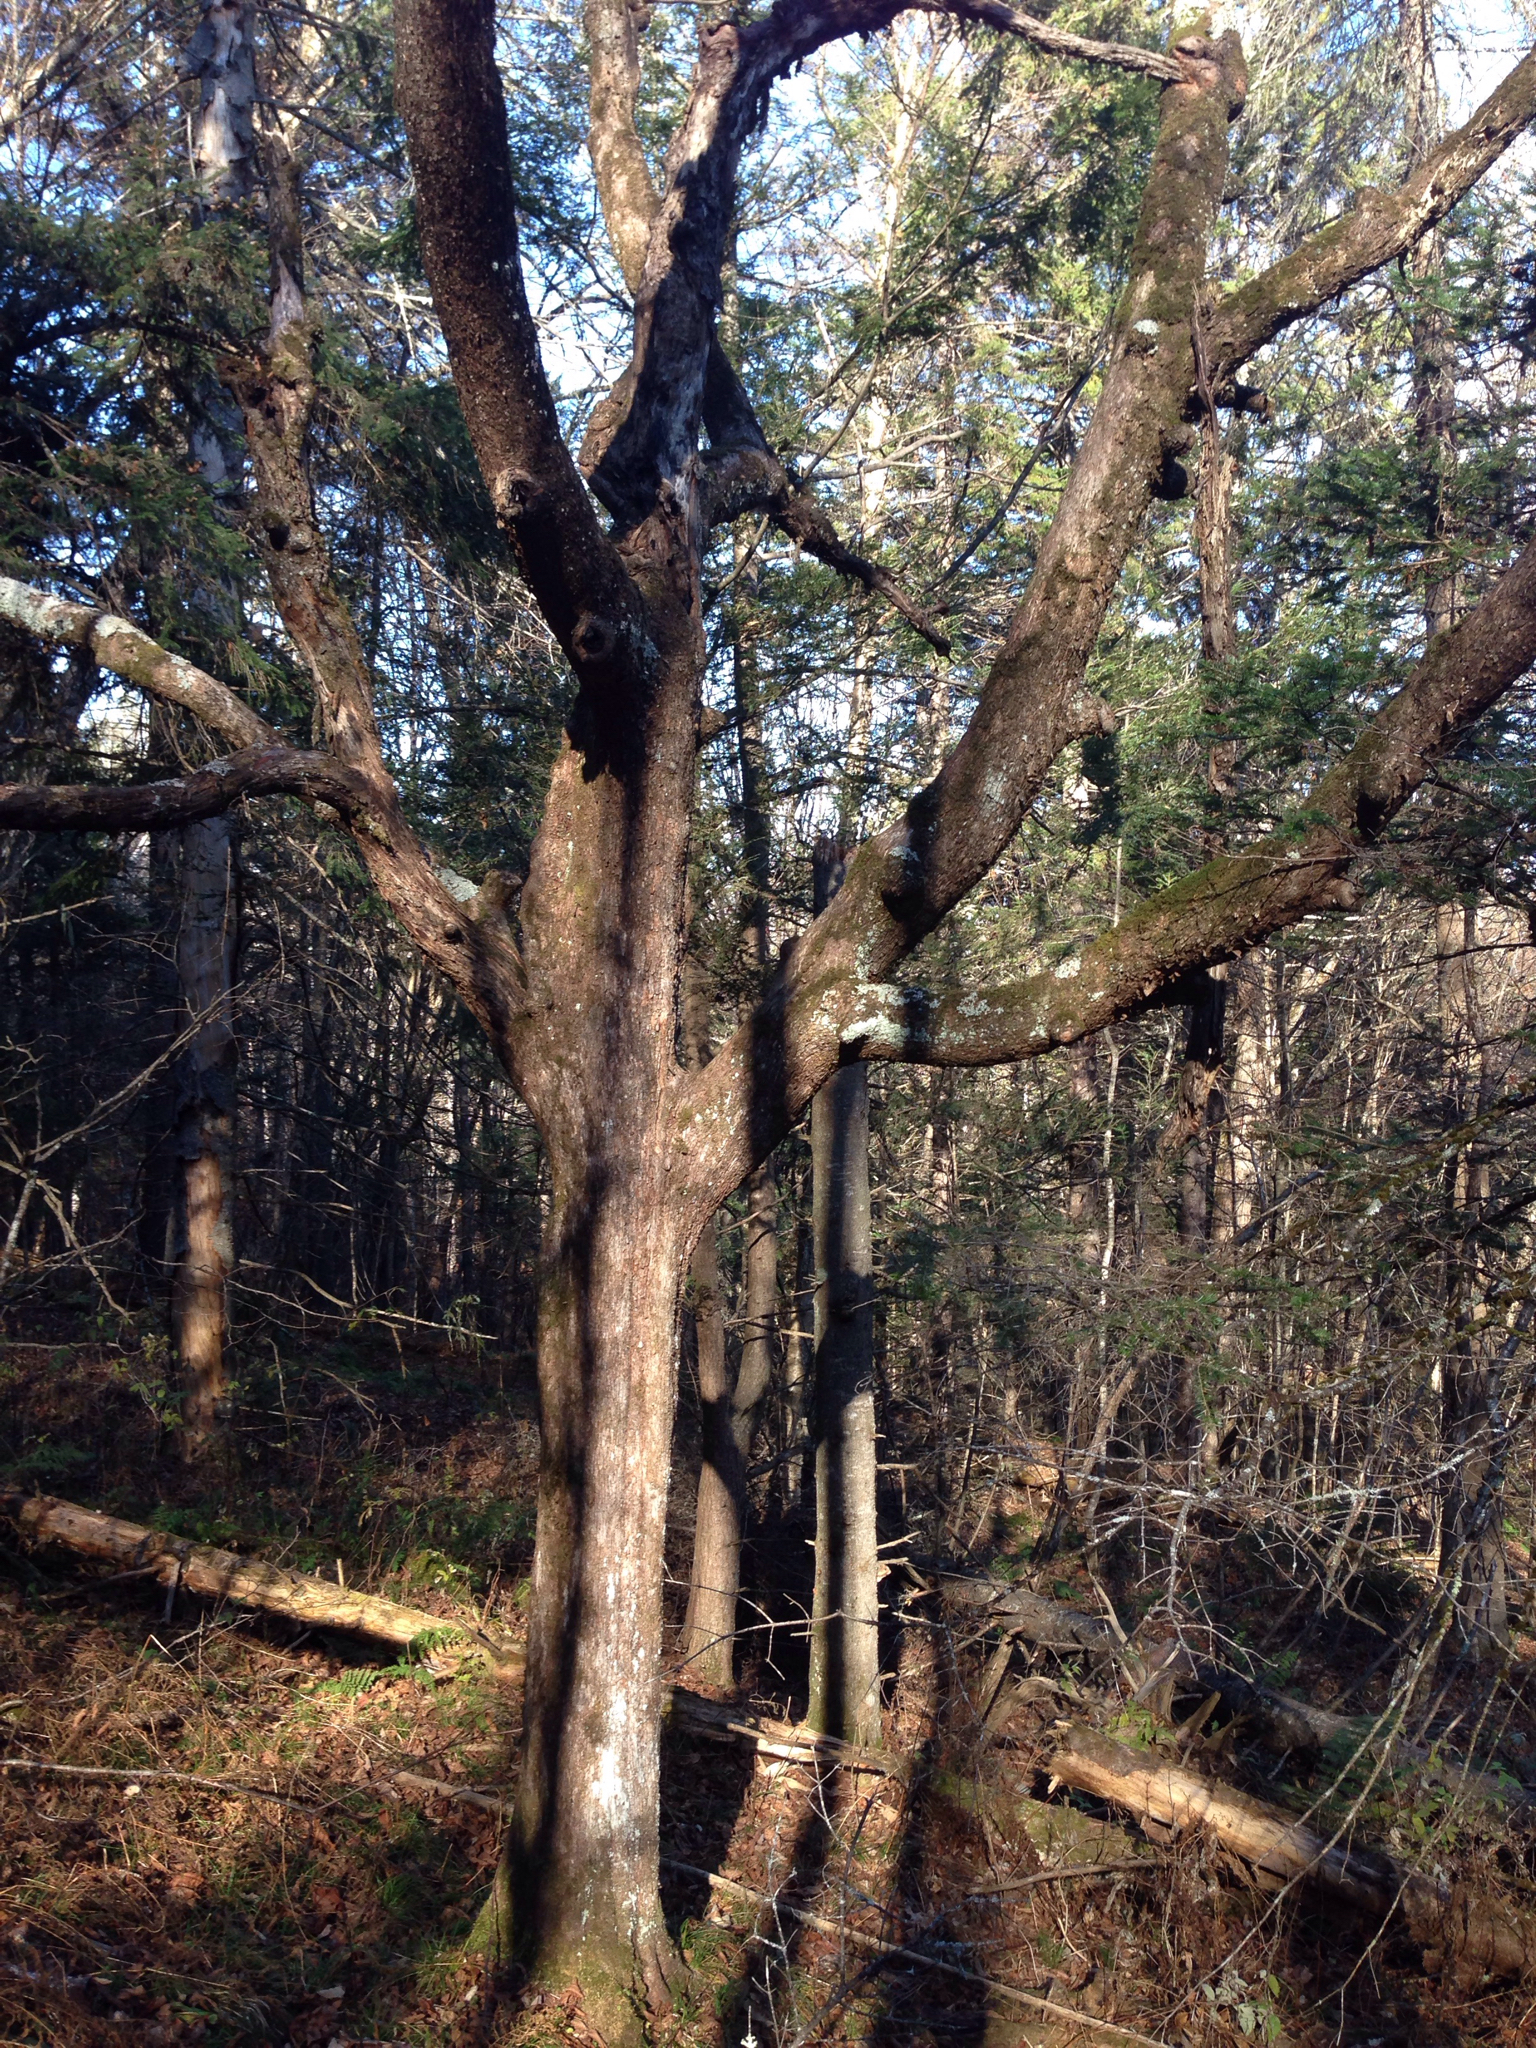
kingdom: Plantae
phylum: Tracheophyta
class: Magnoliopsida
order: Fagales
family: Betulaceae
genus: Ostrya
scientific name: Ostrya virginiana
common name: Ironwood
